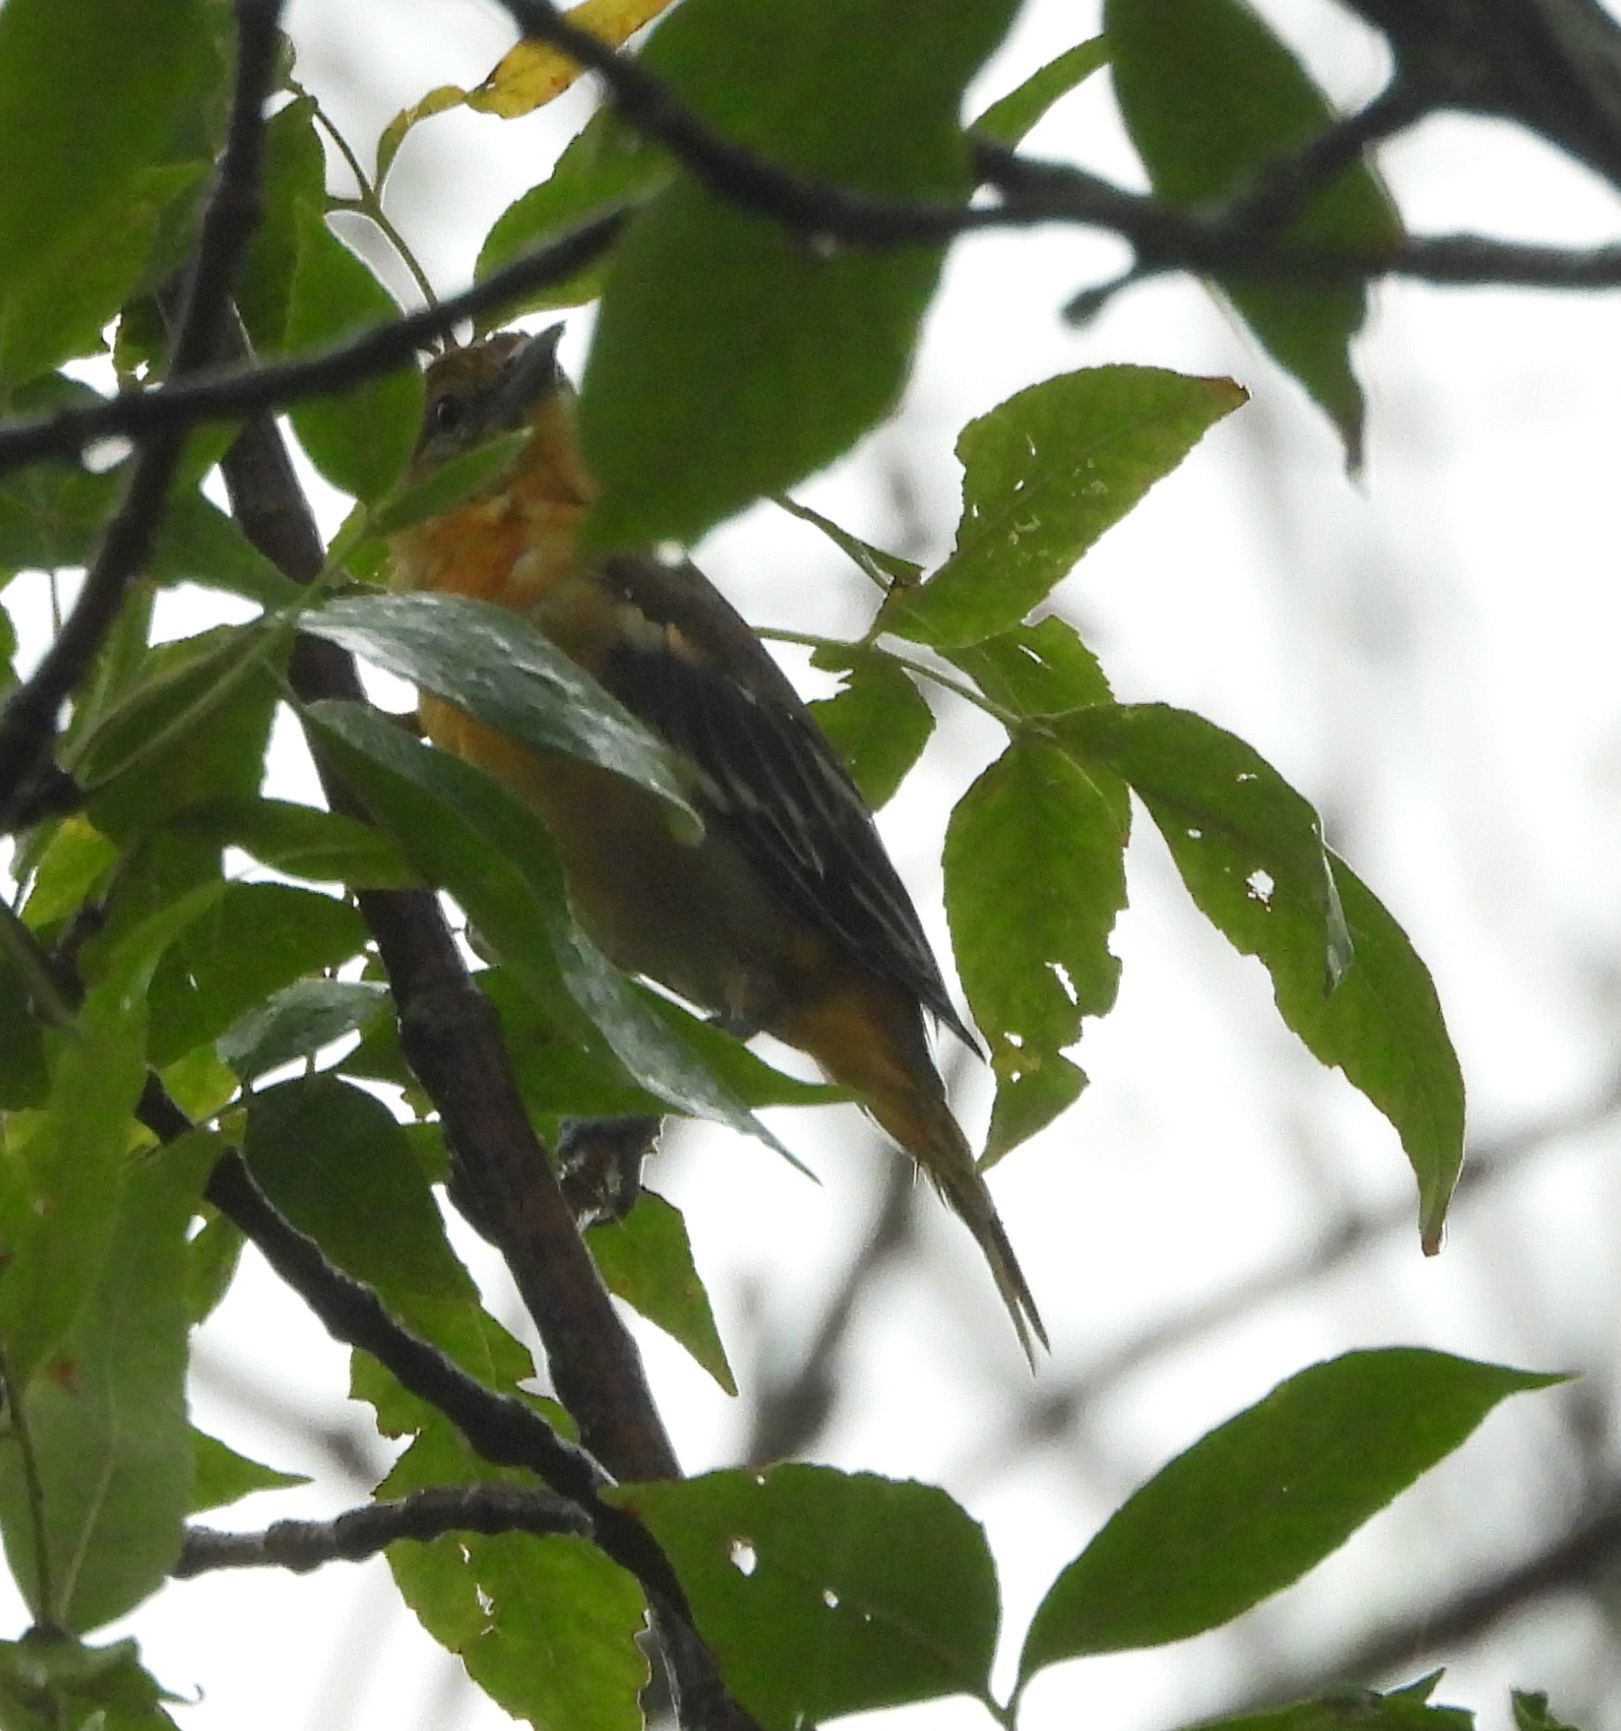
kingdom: Animalia
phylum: Chordata
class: Aves
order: Passeriformes
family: Icteridae
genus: Icterus
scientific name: Icterus galbula
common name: Baltimore oriole
